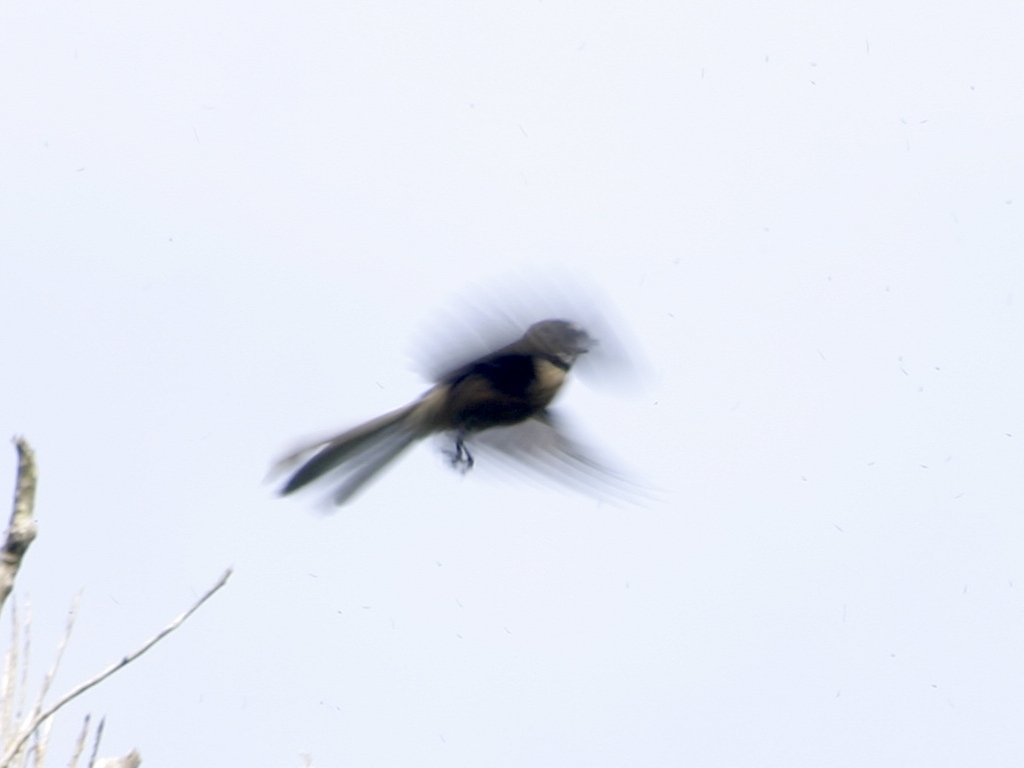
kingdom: Animalia
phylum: Chordata
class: Aves
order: Passeriformes
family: Rhipiduridae
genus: Rhipidura
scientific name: Rhipidura fuliginosa
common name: New zealand fantail
